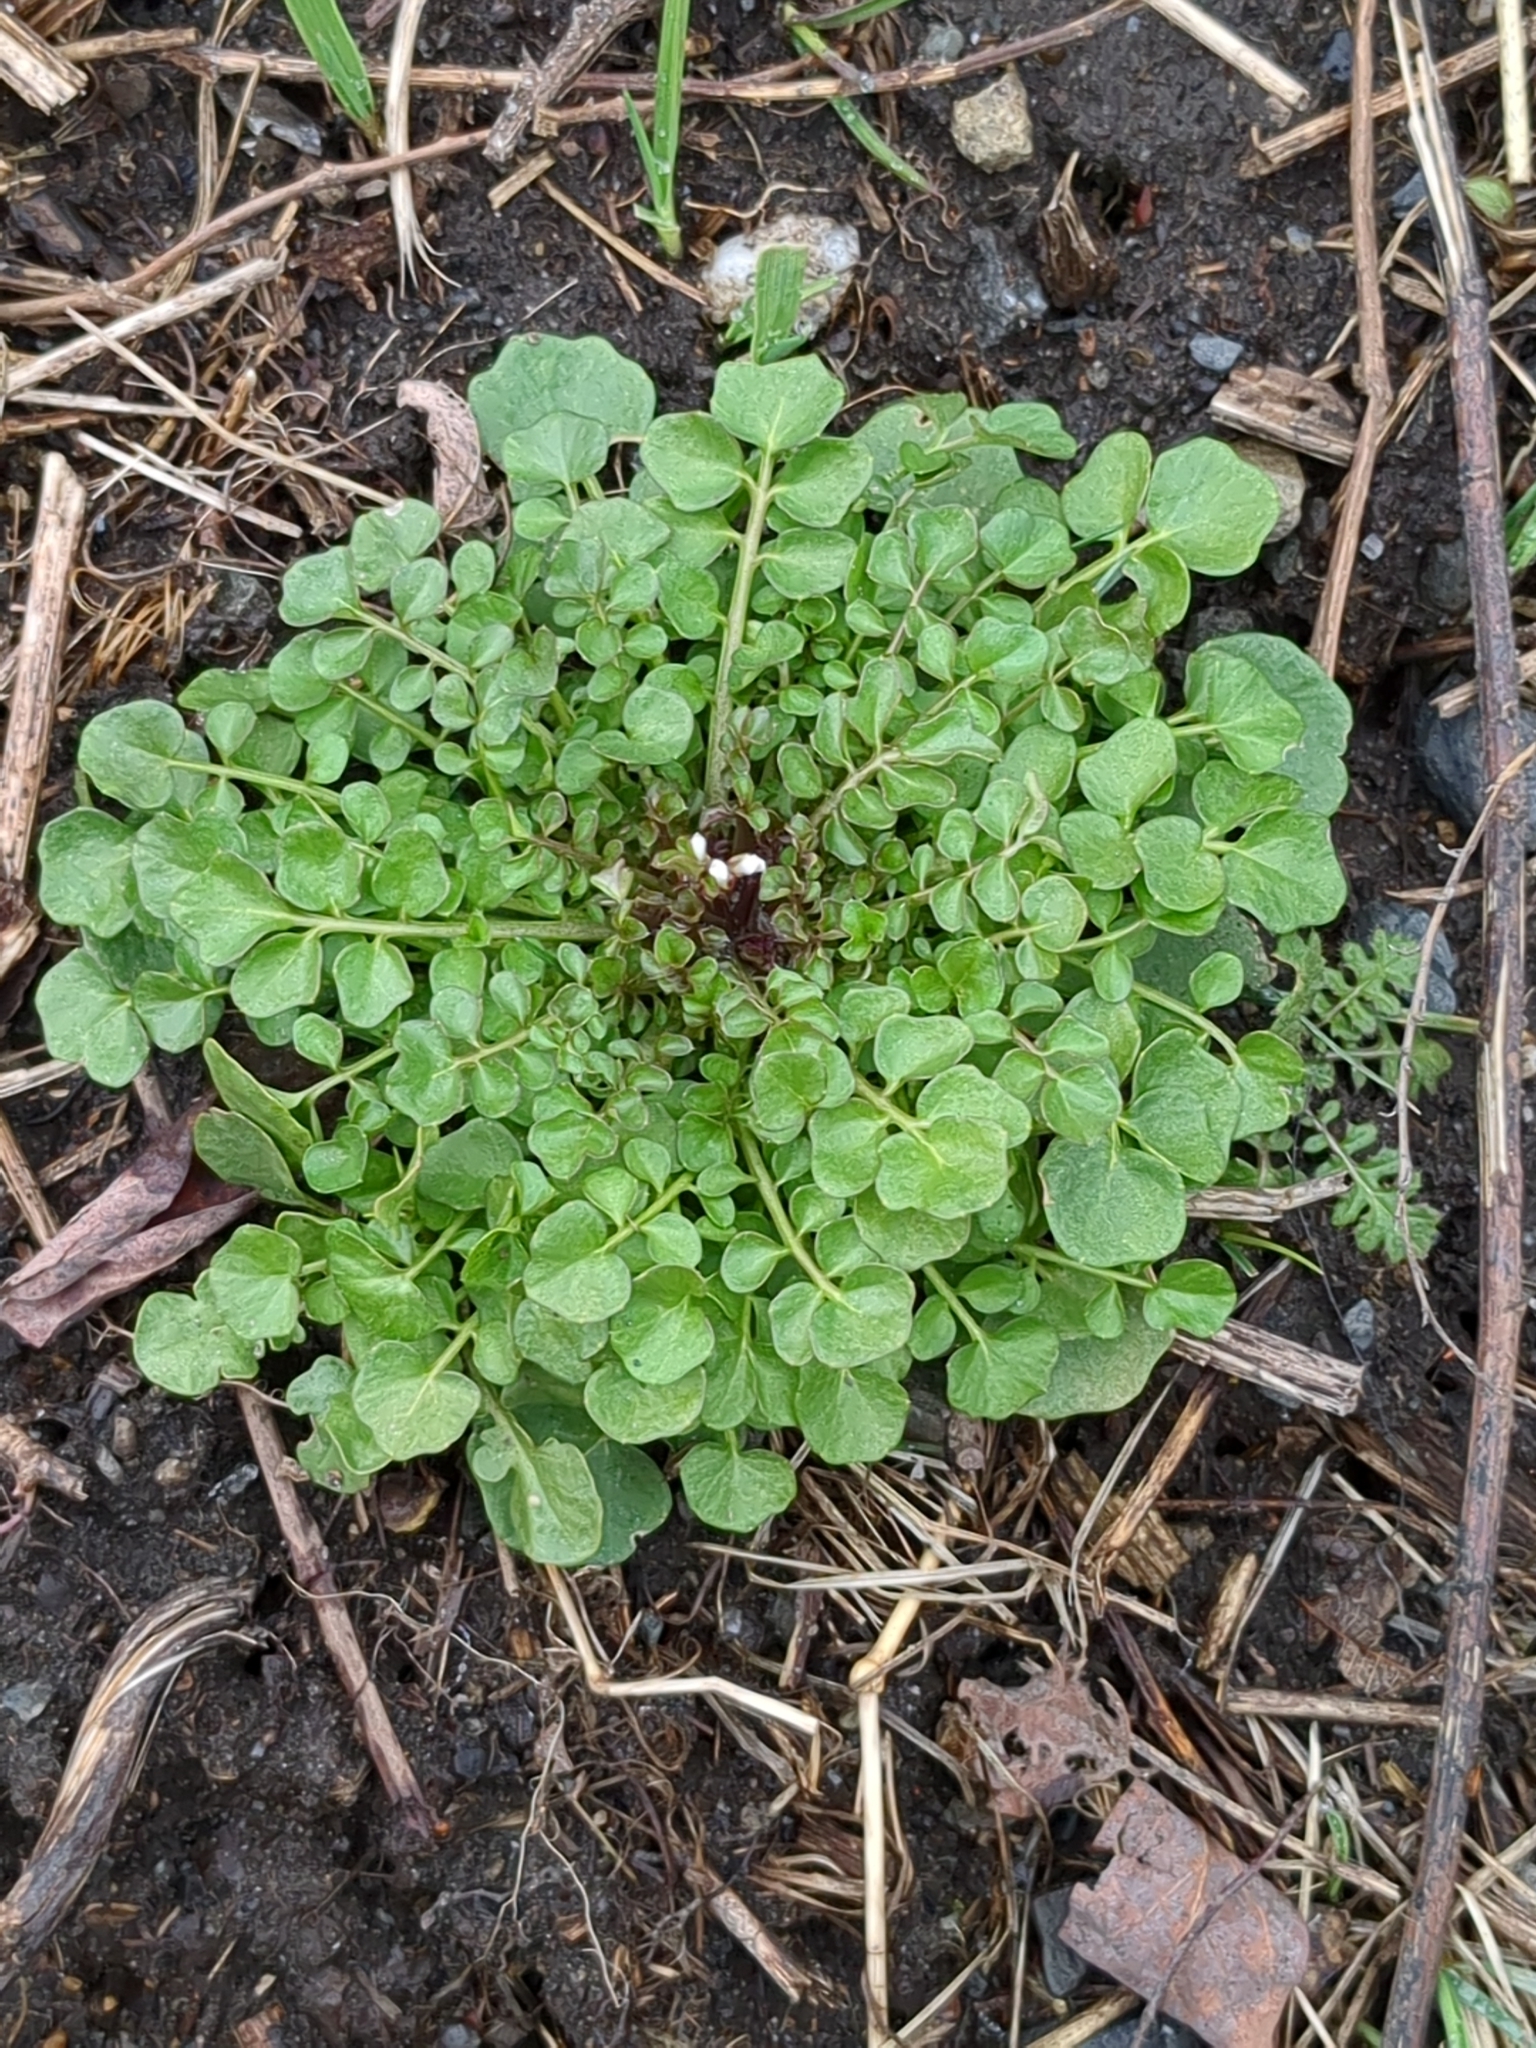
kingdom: Plantae
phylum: Tracheophyta
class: Magnoliopsida
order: Brassicales
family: Brassicaceae
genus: Cardamine
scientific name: Cardamine hirsuta
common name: Hairy bittercress
